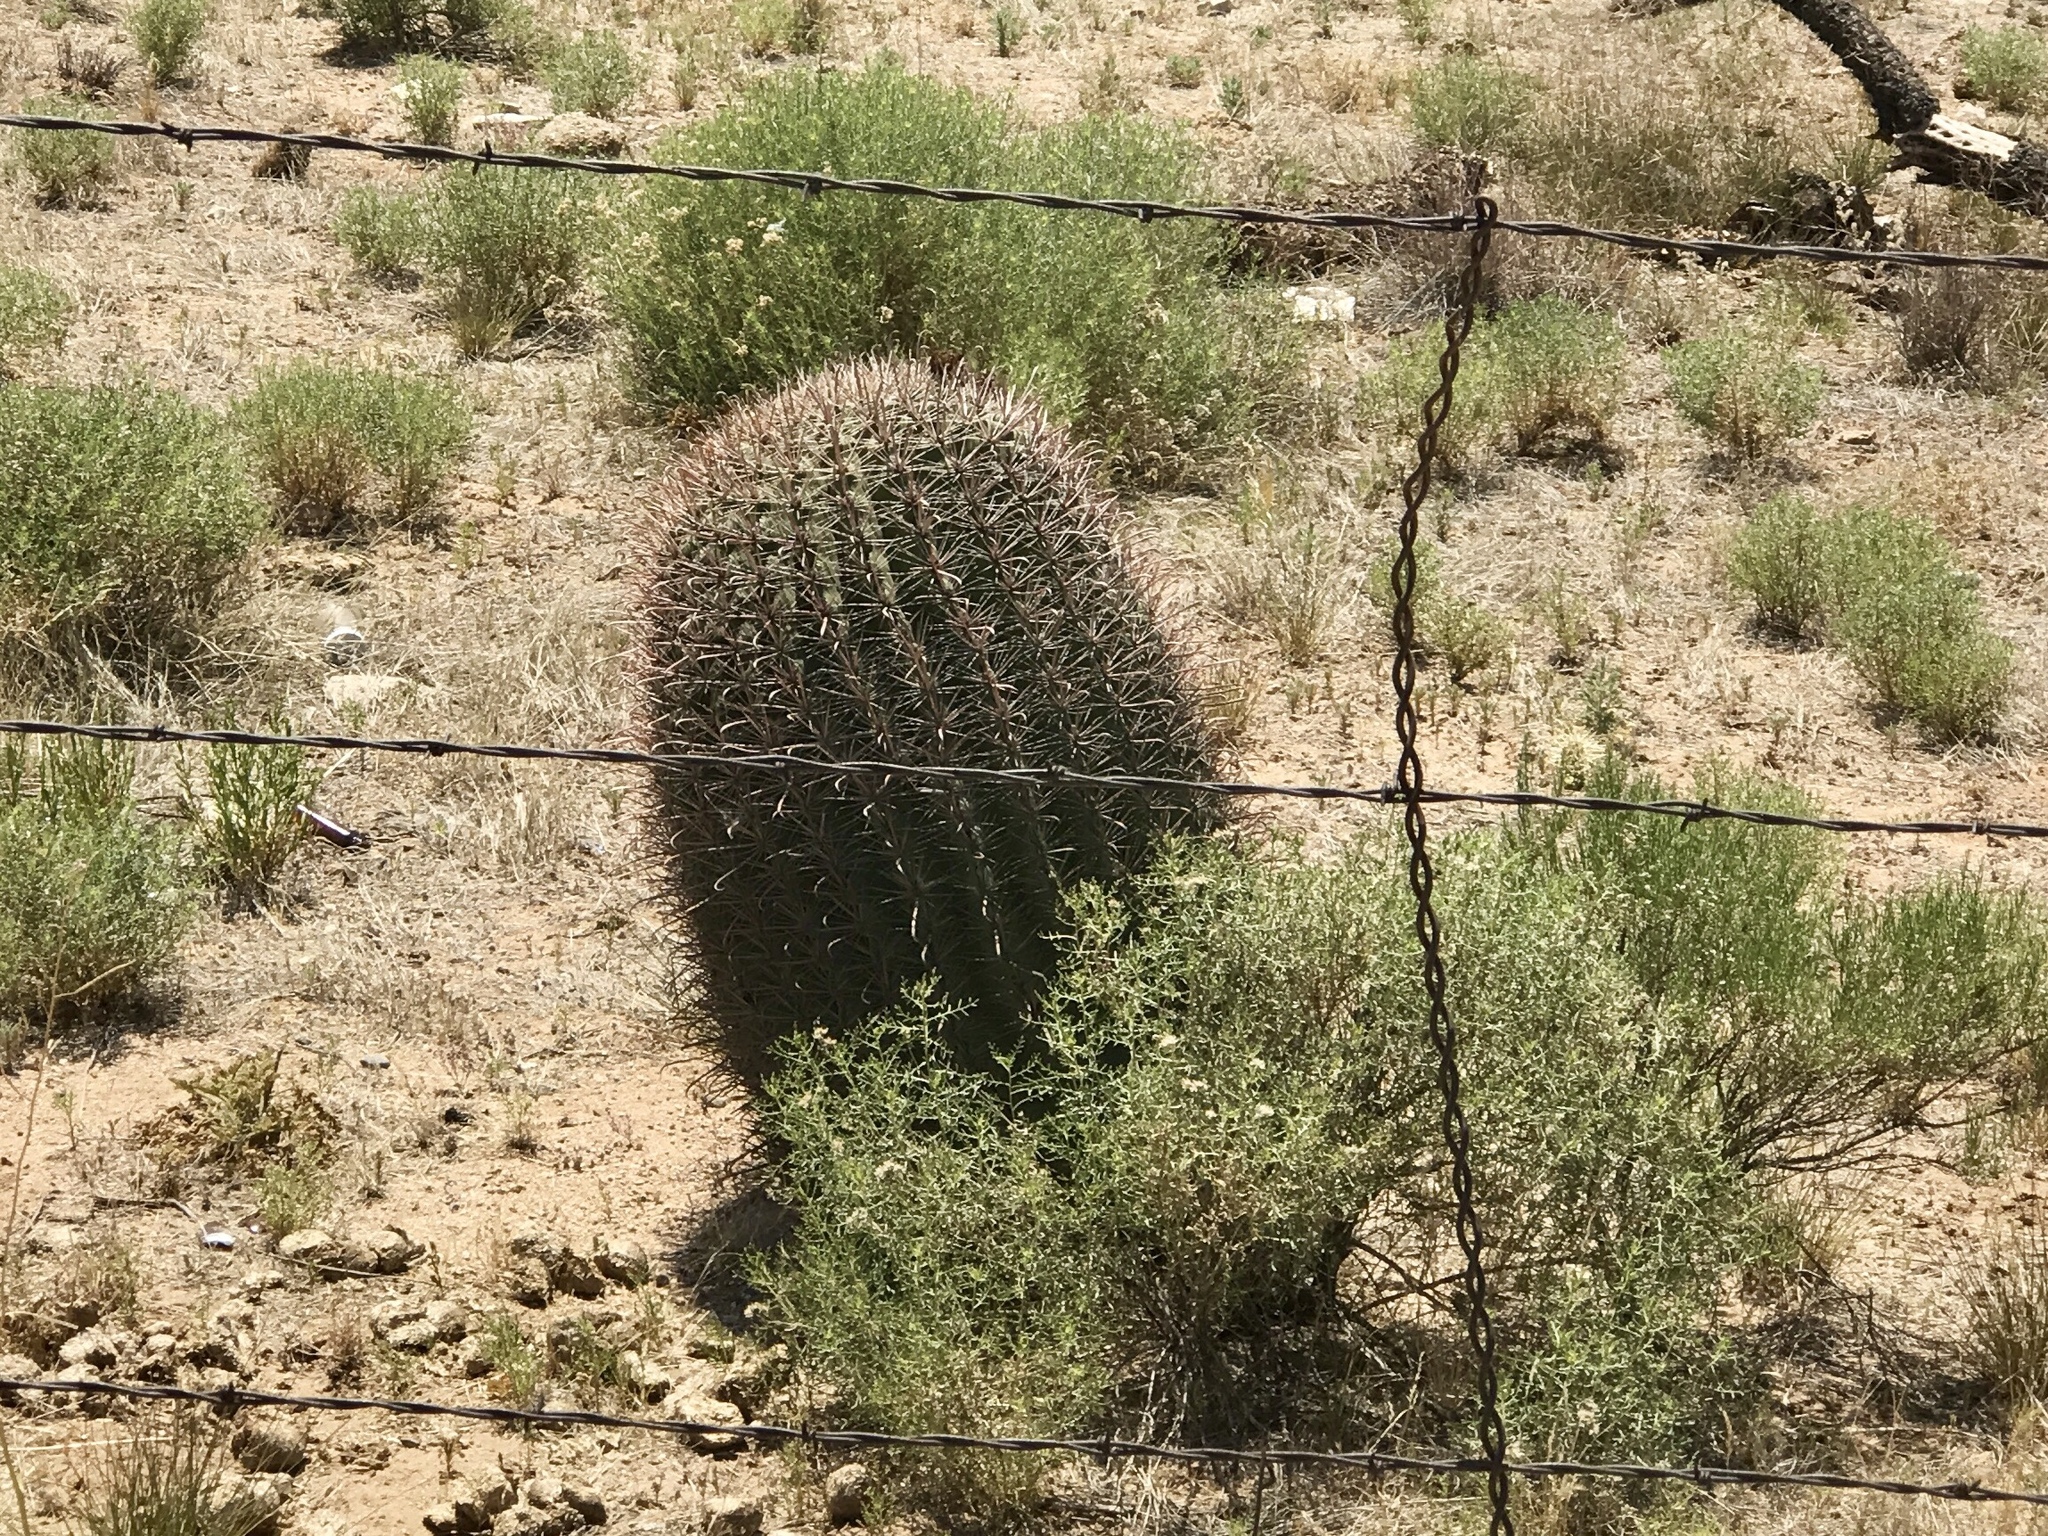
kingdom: Plantae
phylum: Tracheophyta
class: Magnoliopsida
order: Caryophyllales
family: Cactaceae
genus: Ferocactus
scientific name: Ferocactus wislizeni
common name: Candy barrel cactus
